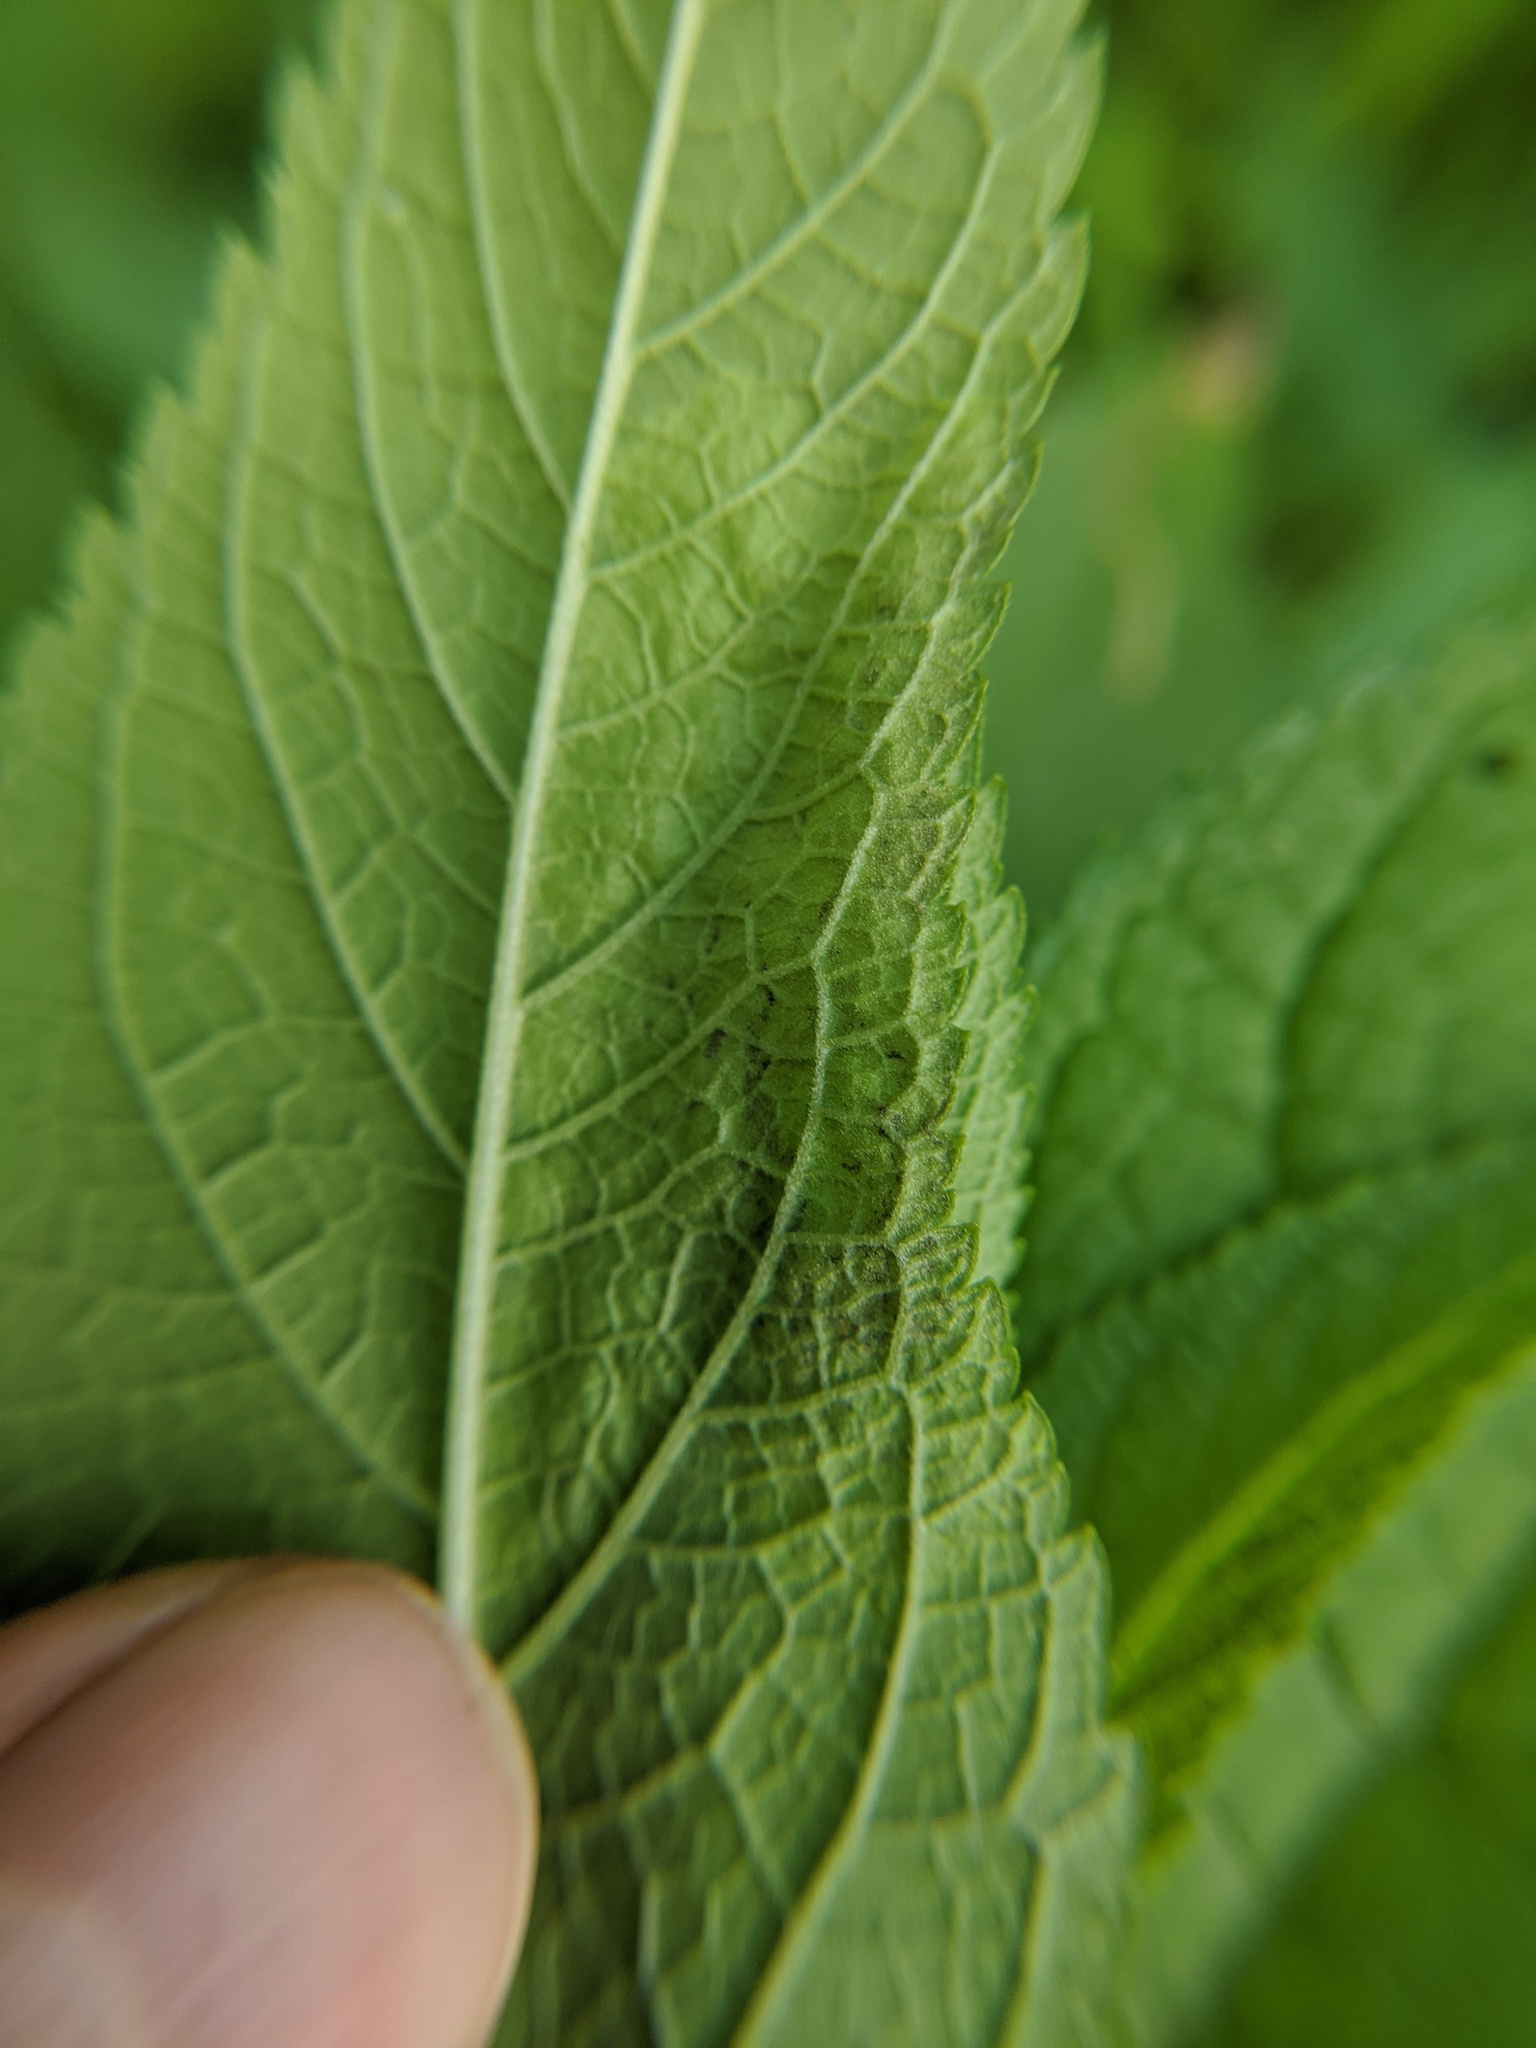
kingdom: Animalia
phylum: Arthropoda
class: Insecta
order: Diptera
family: Agromyzidae
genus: Calycomyza
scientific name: Calycomyza flavinotum
